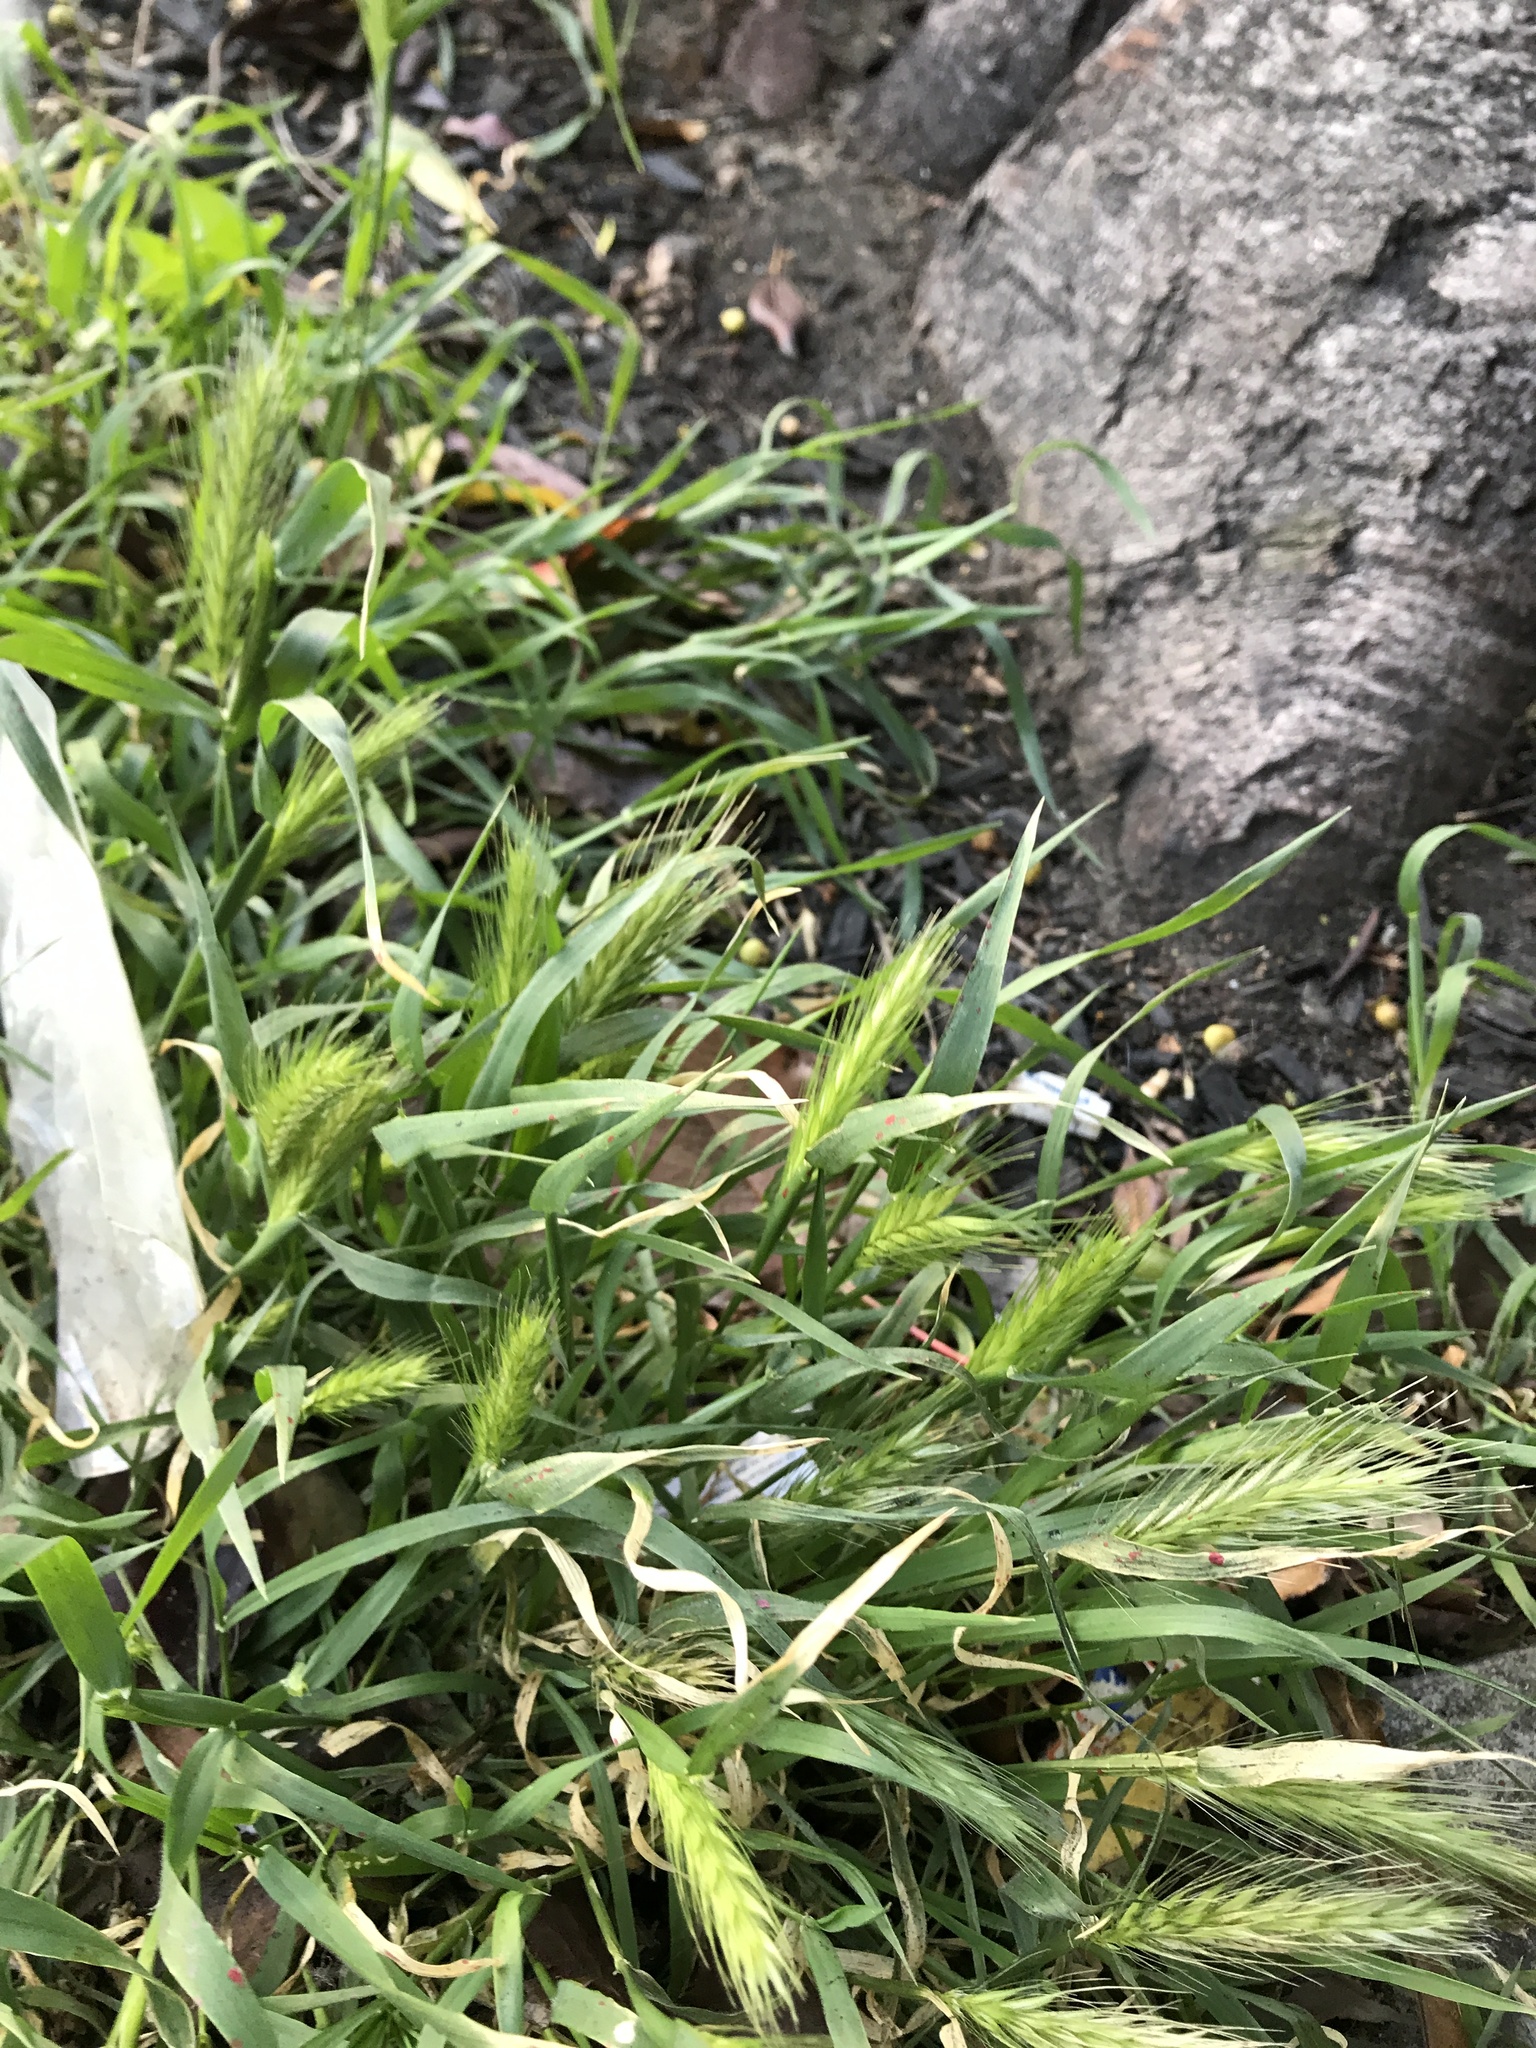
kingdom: Plantae
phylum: Tracheophyta
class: Liliopsida
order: Poales
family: Poaceae
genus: Hordeum
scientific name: Hordeum murinum
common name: Wall barley
